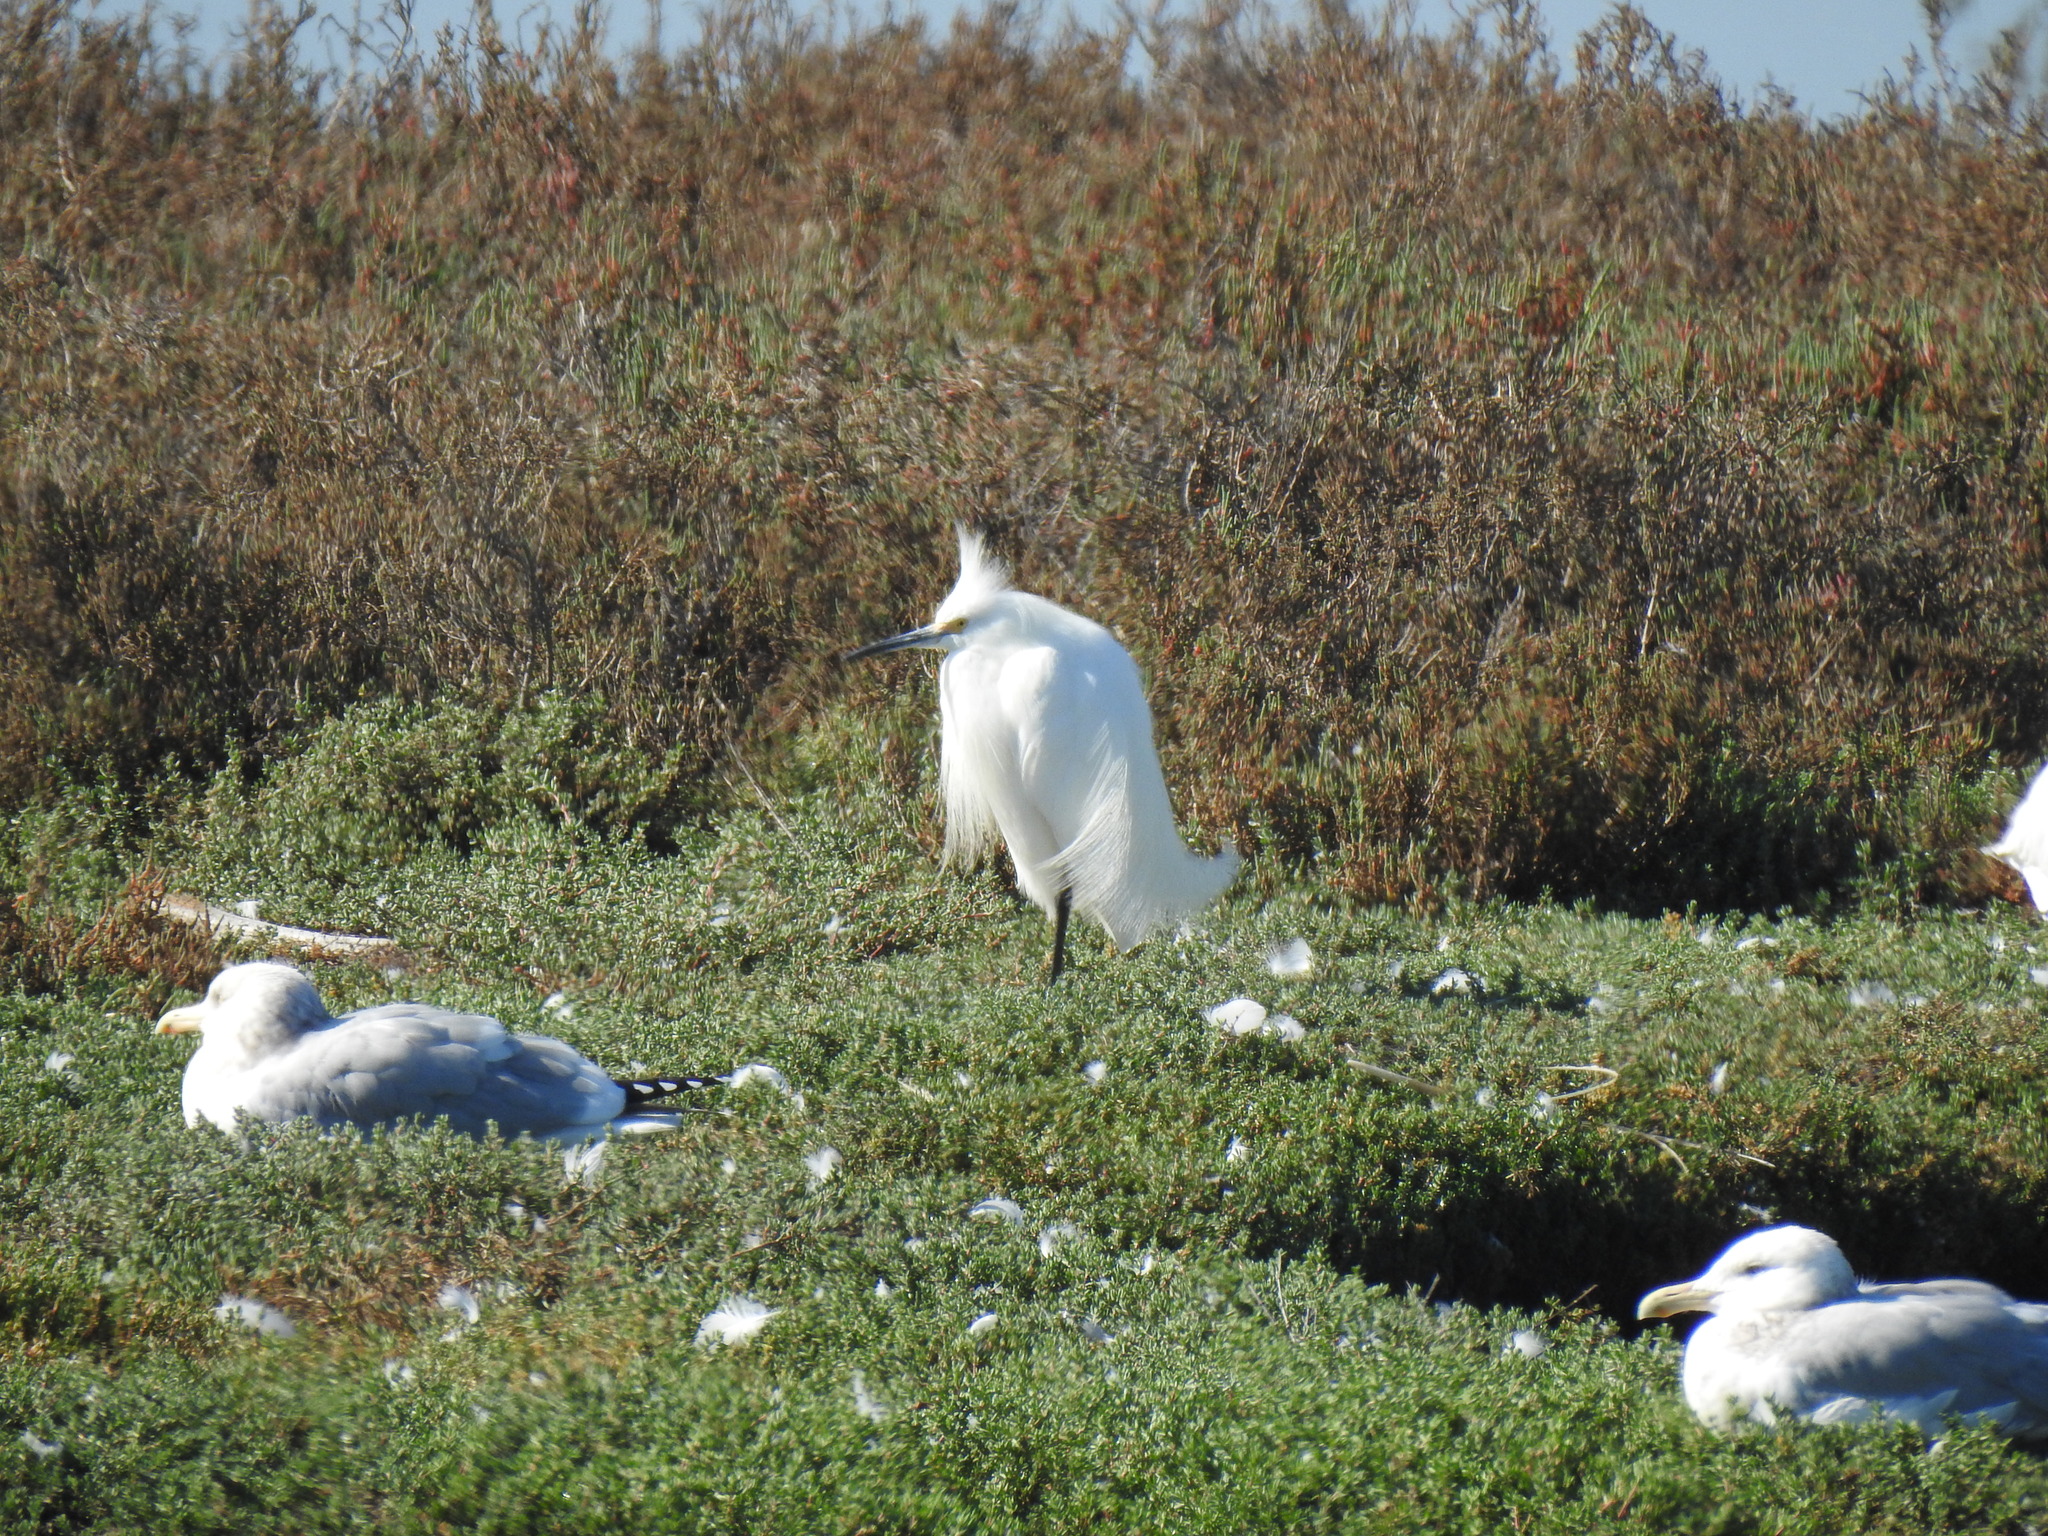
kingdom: Animalia
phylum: Chordata
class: Aves
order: Pelecaniformes
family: Ardeidae
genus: Egretta
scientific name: Egretta thula
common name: Snowy egret
